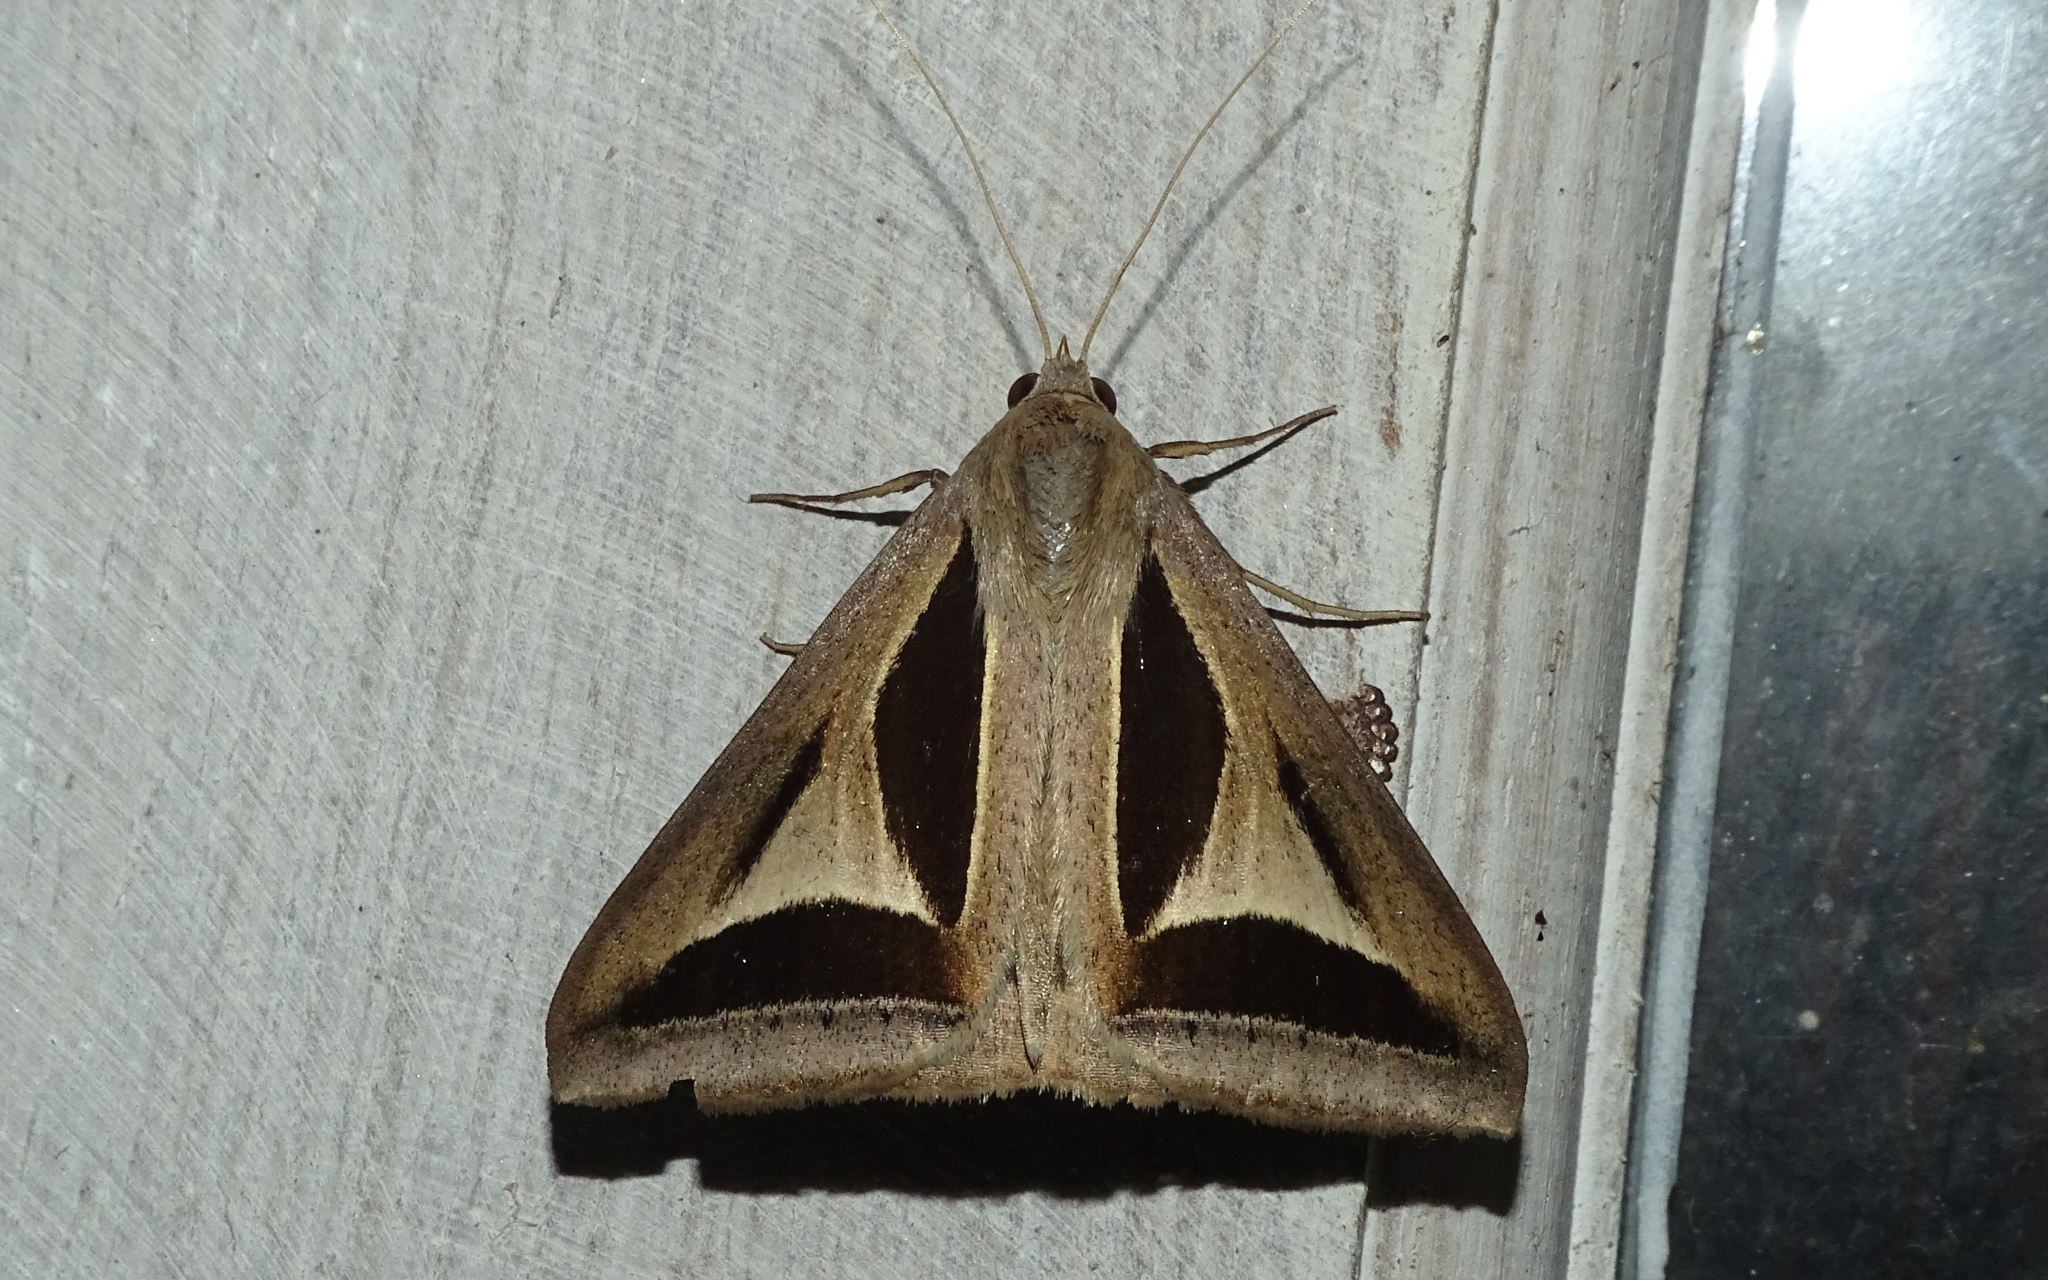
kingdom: Animalia
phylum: Arthropoda
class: Insecta
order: Lepidoptera
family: Erebidae
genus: Trigonodes
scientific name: Trigonodes cephise
